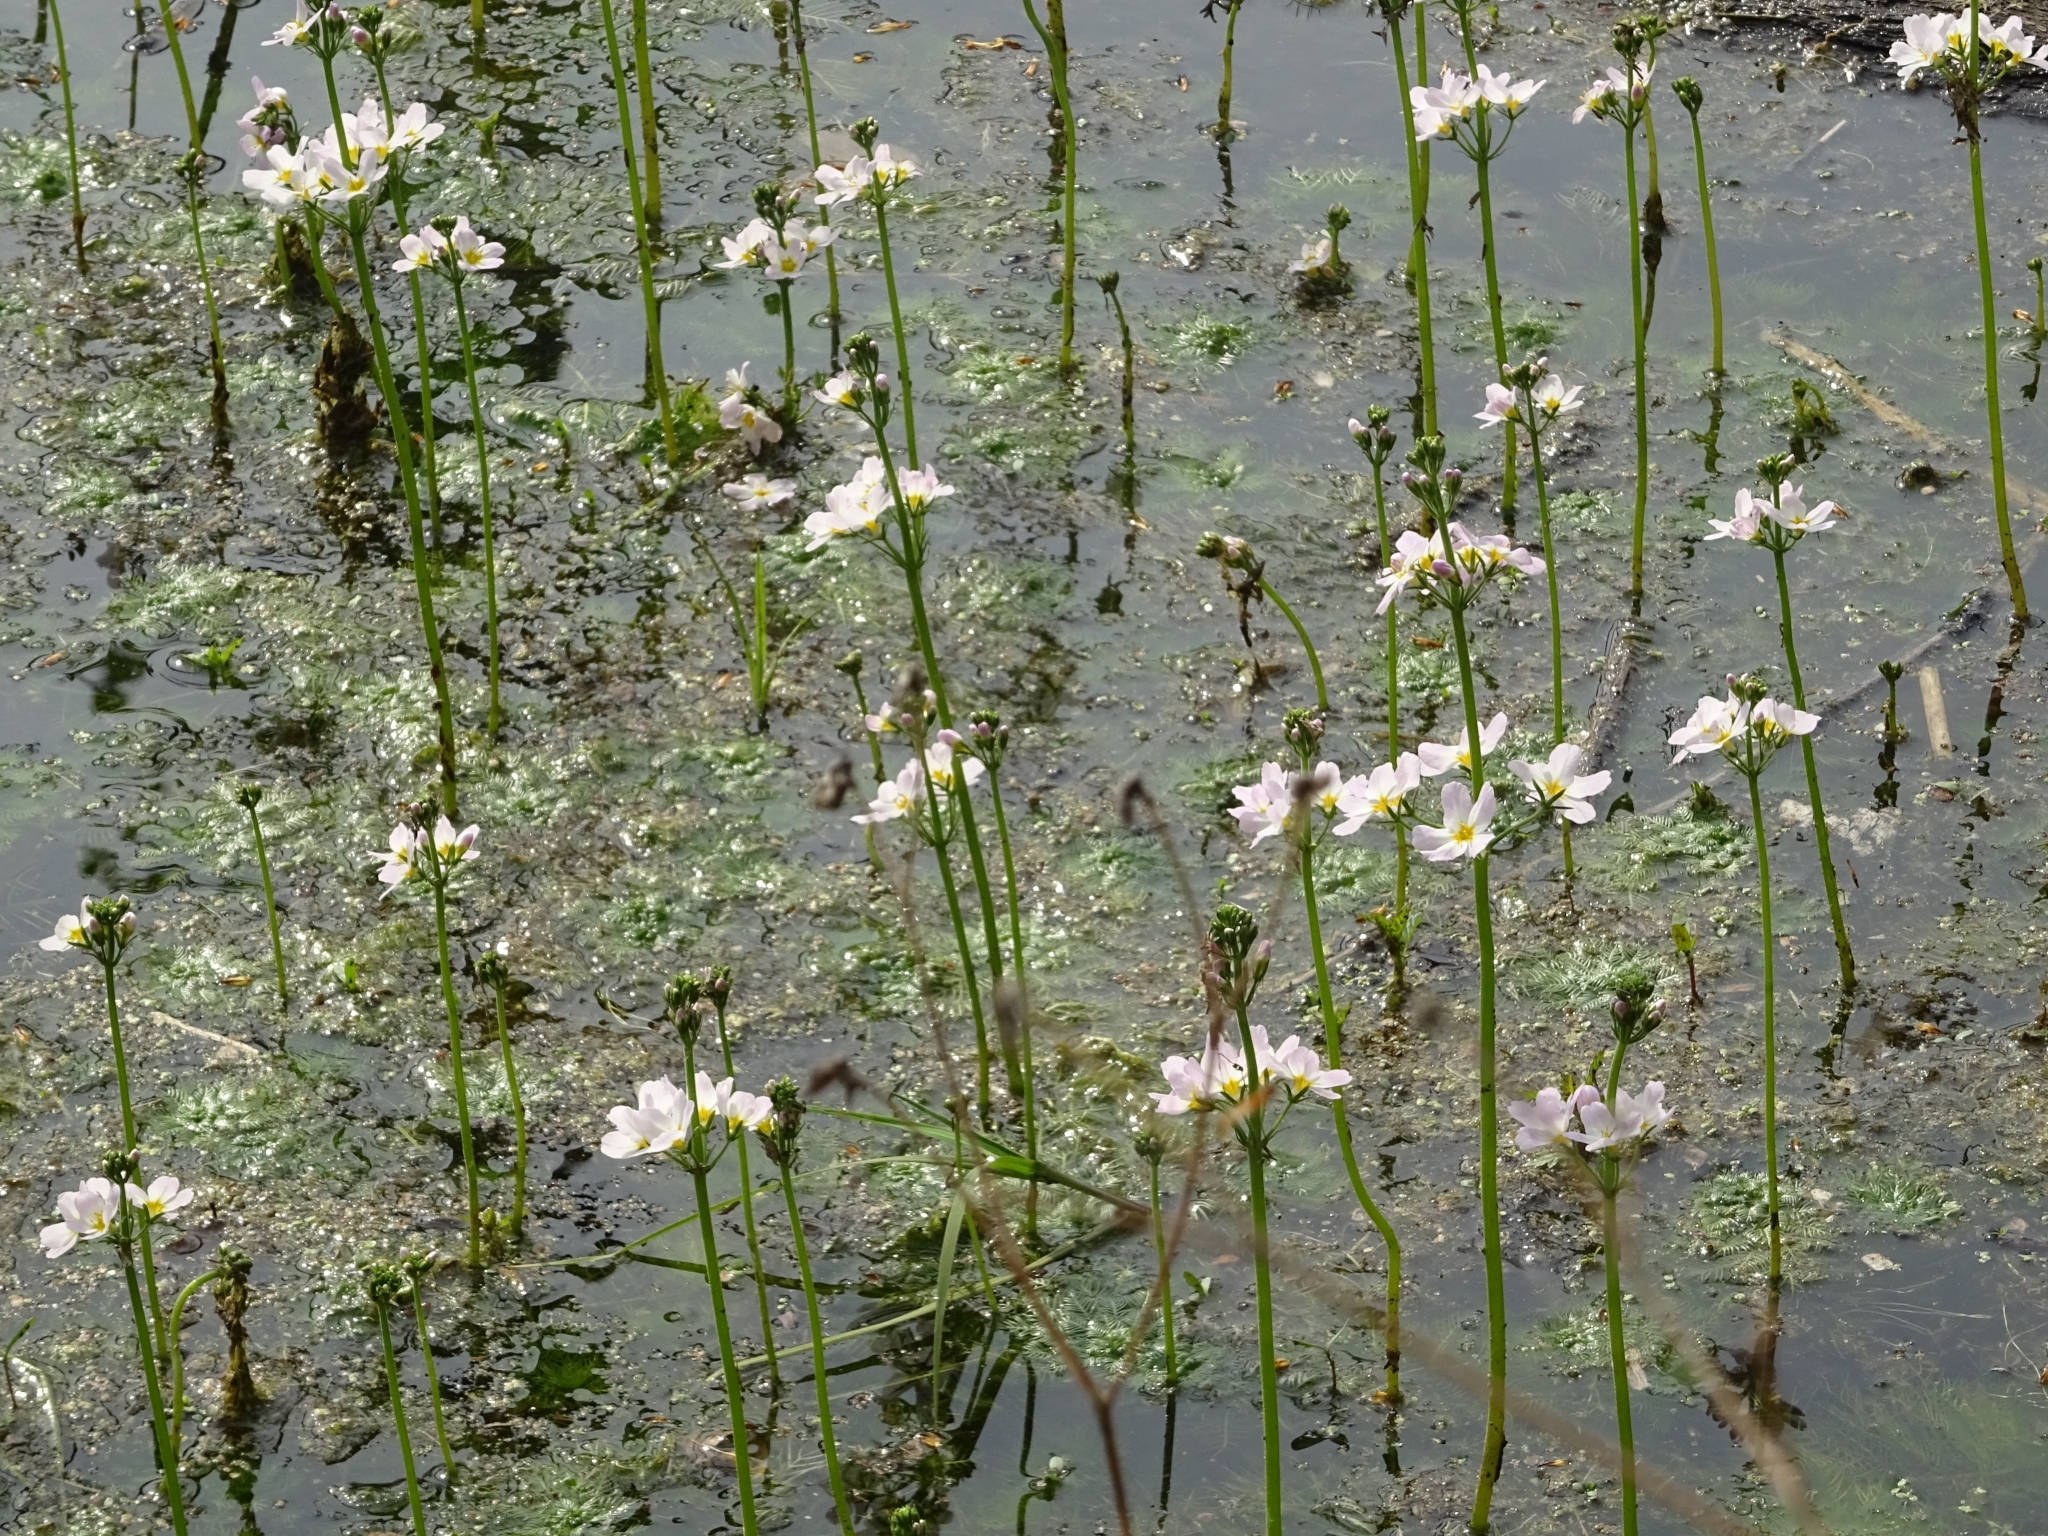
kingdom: Plantae
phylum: Tracheophyta
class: Magnoliopsida
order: Ericales
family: Primulaceae
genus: Hottonia
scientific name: Hottonia palustris
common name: Water-violet
